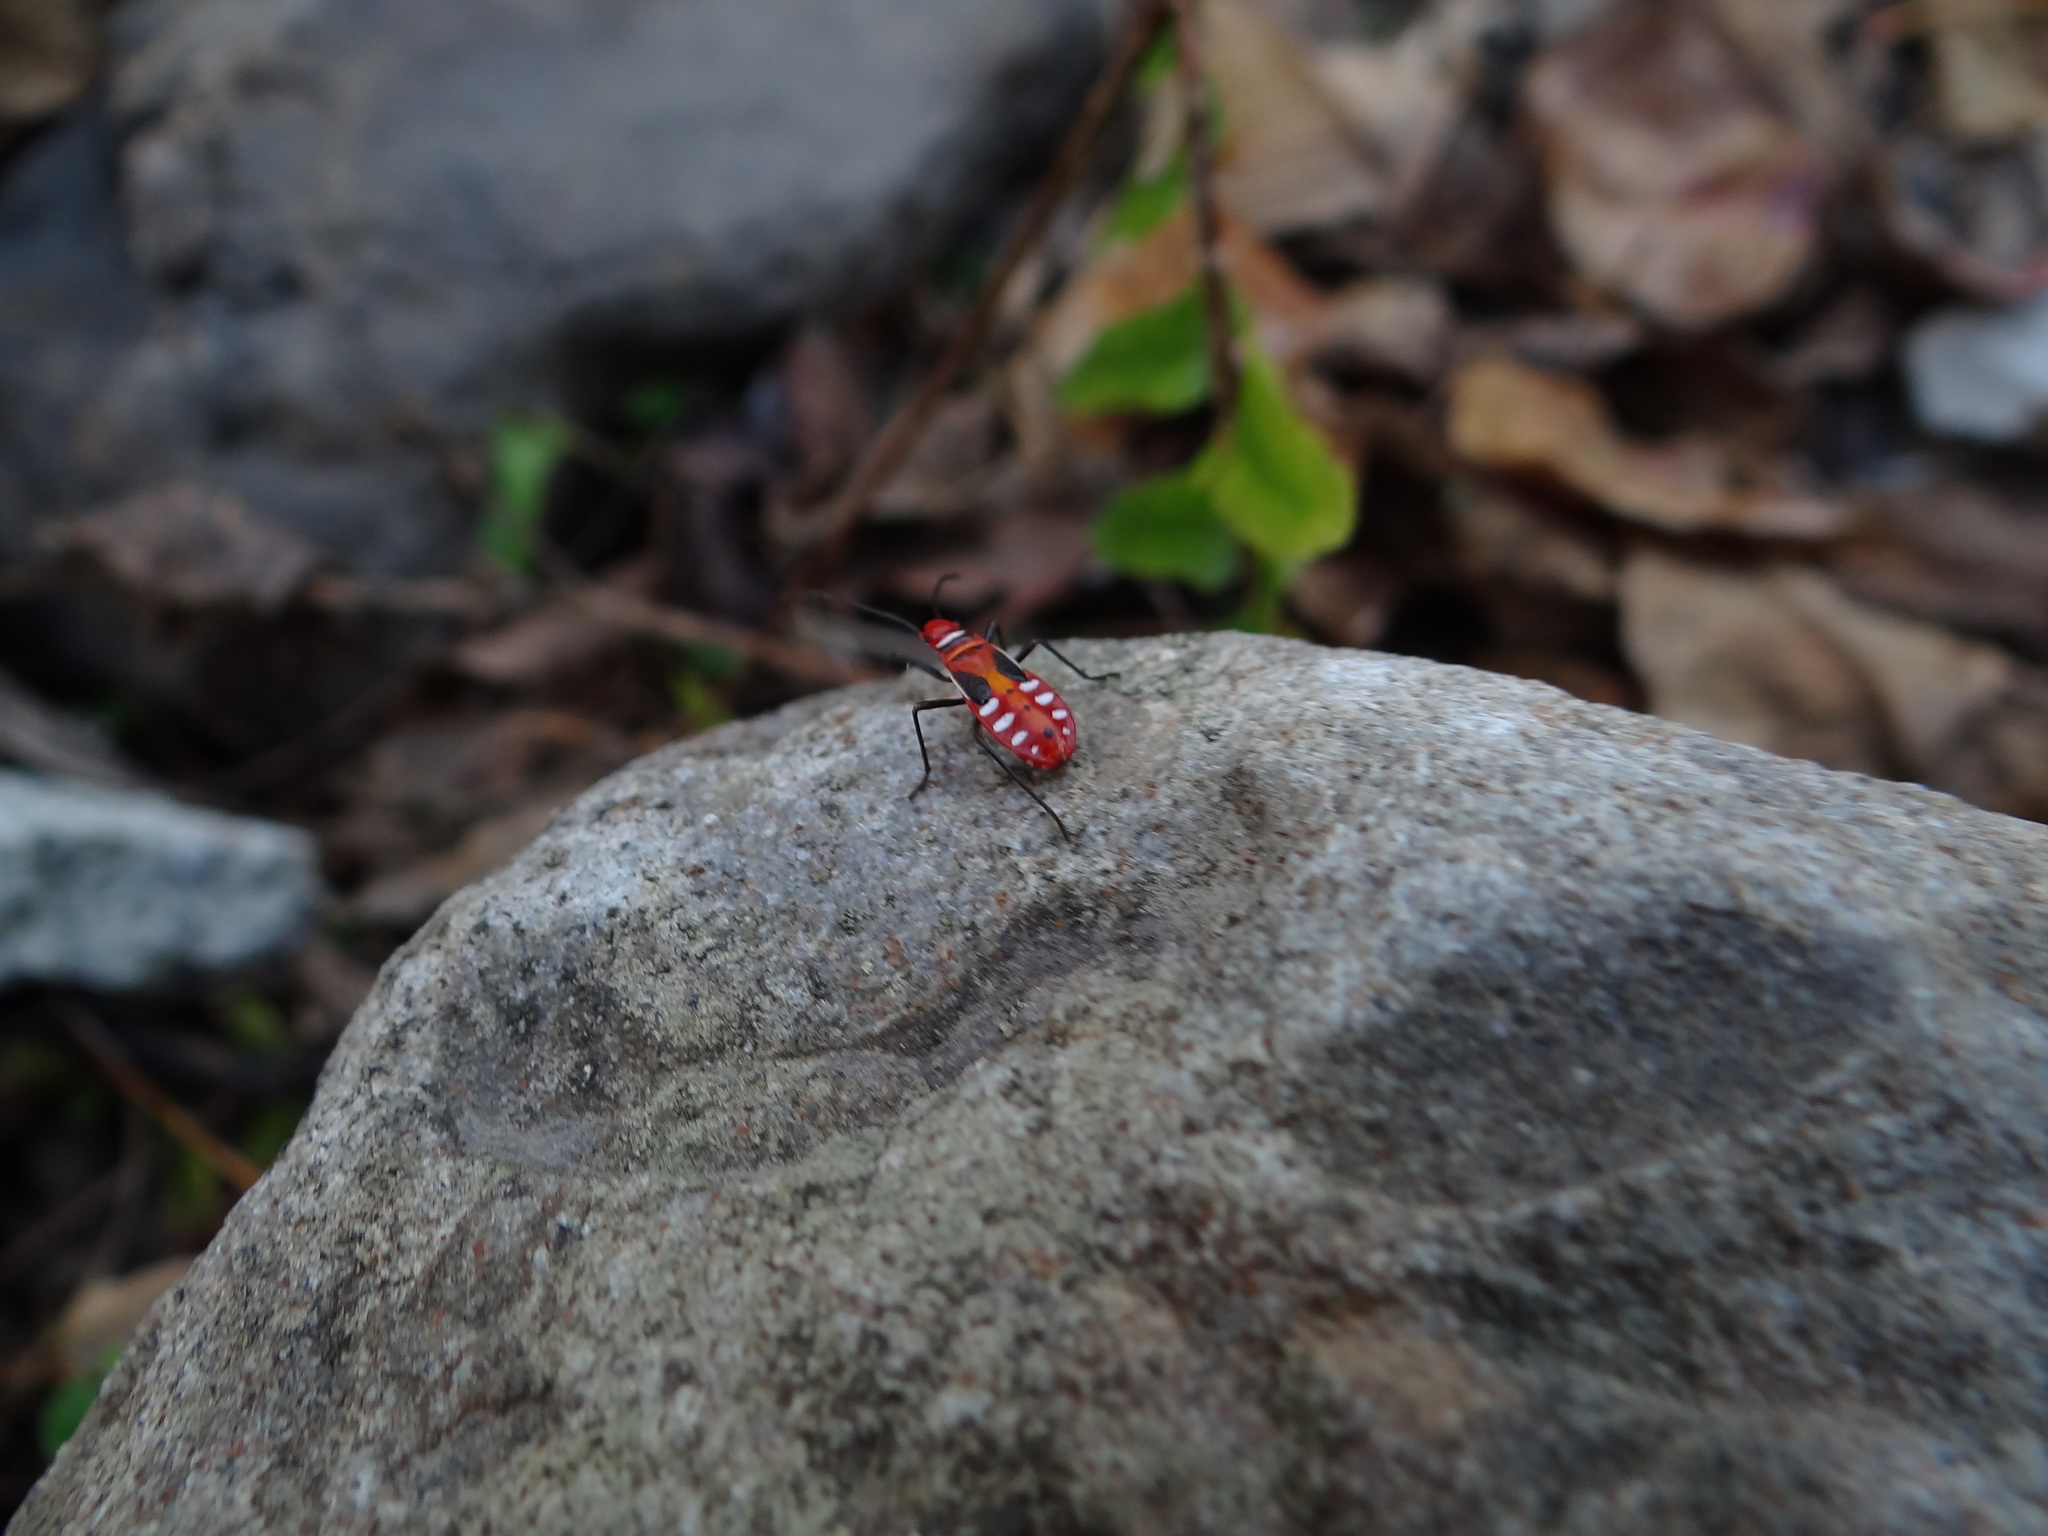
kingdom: Animalia
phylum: Arthropoda
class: Insecta
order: Hemiptera
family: Pyrrhocoridae
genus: Dysdercus
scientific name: Dysdercus cingulatus
